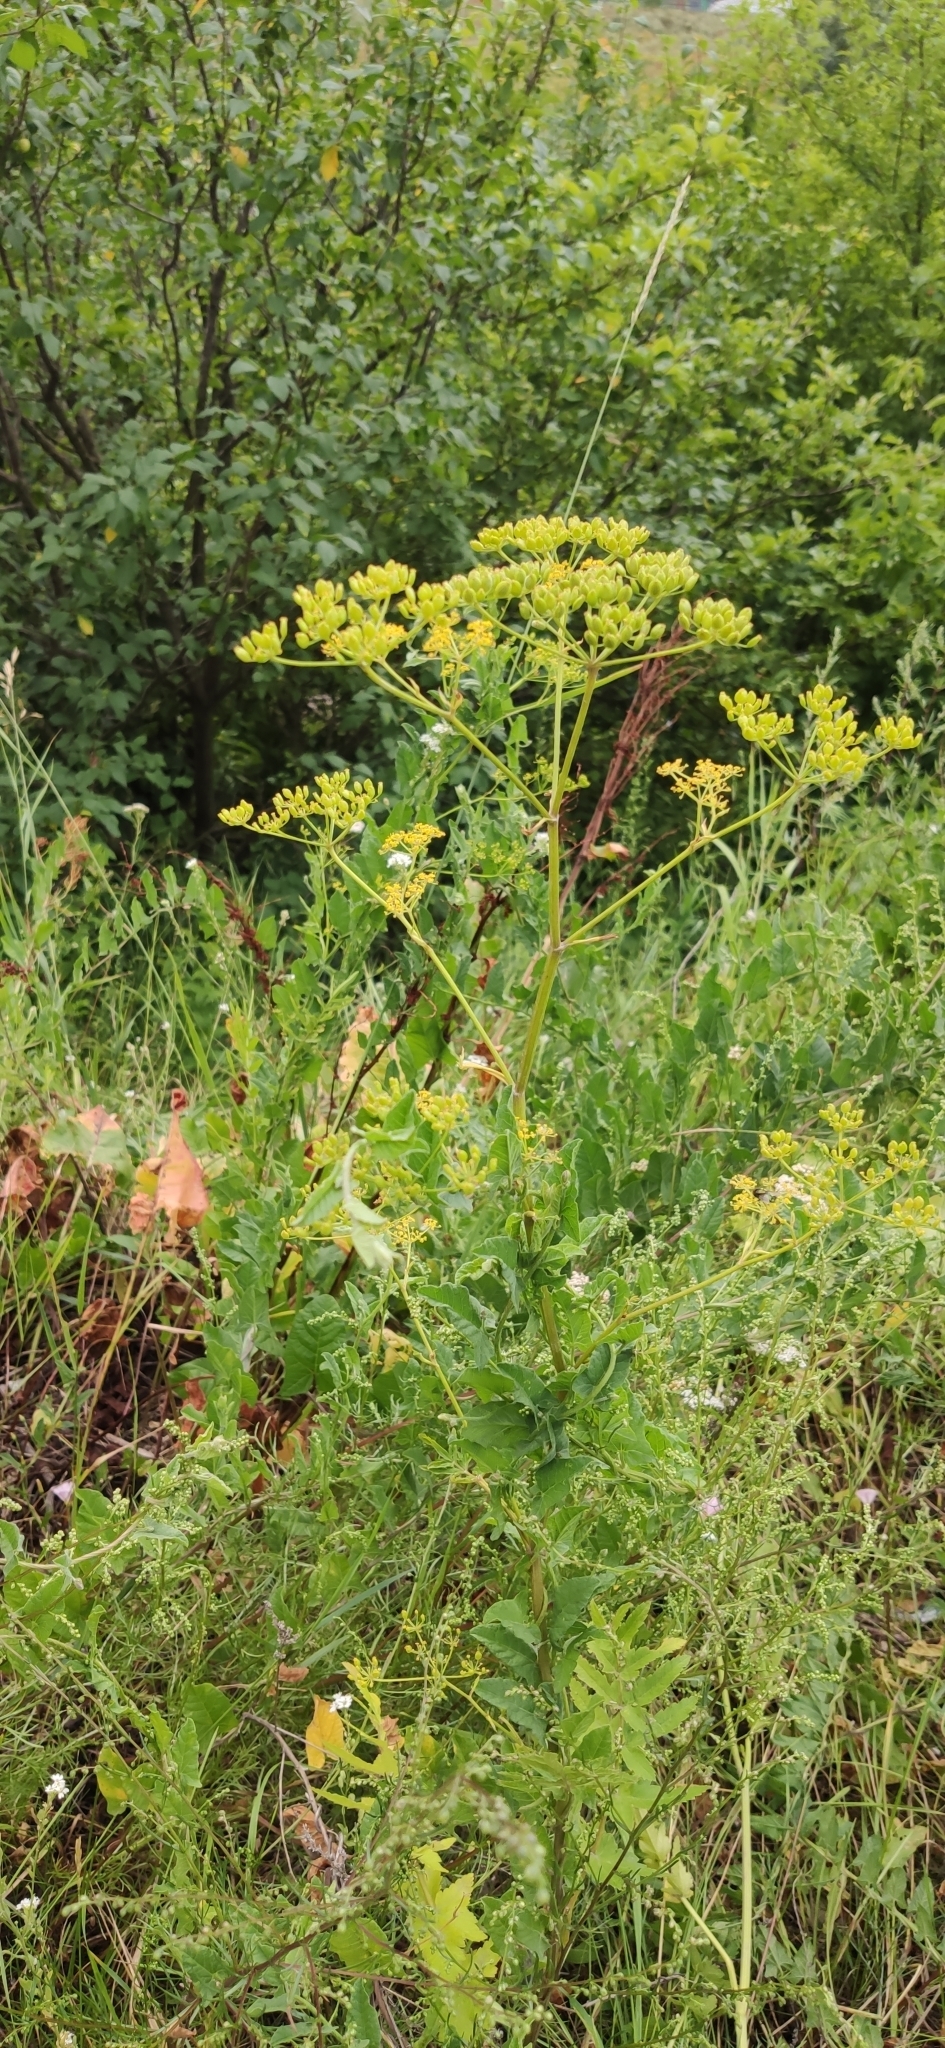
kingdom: Plantae
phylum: Tracheophyta
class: Magnoliopsida
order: Apiales
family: Apiaceae
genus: Pastinaca
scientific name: Pastinaca sativa
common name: Wild parsnip
